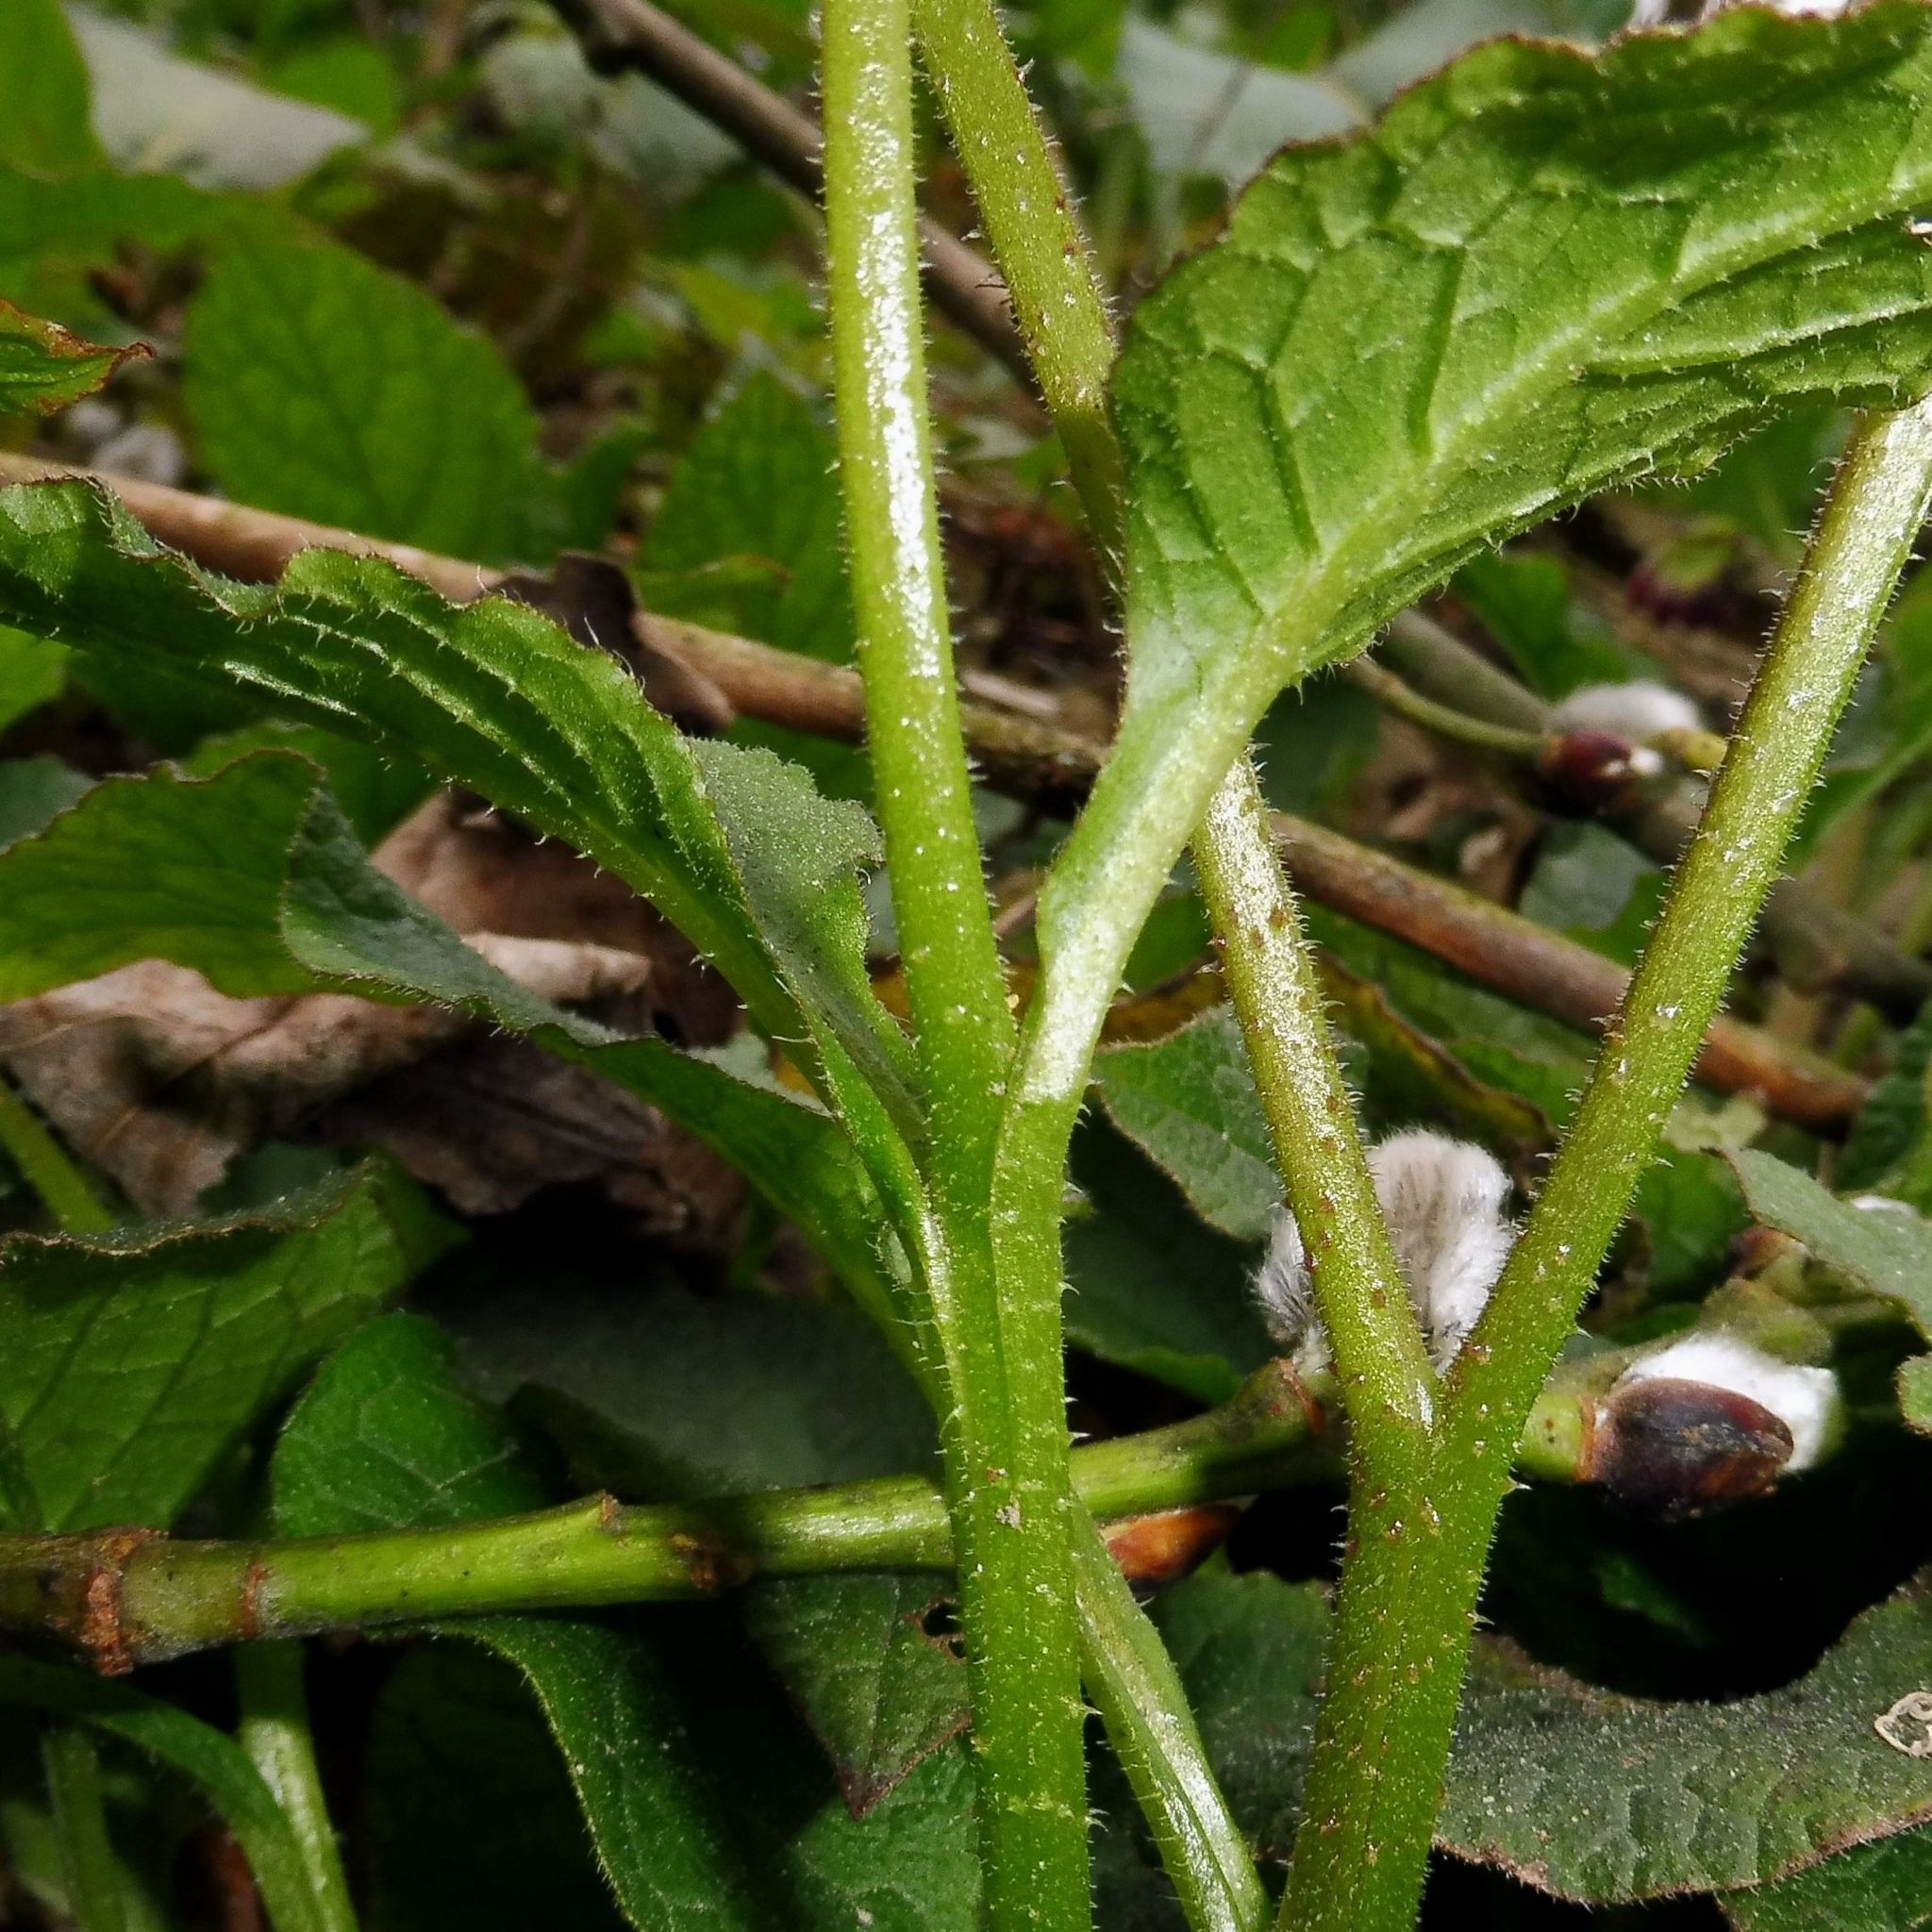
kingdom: Plantae
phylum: Tracheophyta
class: Magnoliopsida
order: Boraginales
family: Boraginaceae
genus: Symphytum
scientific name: Symphytum hidcotense
